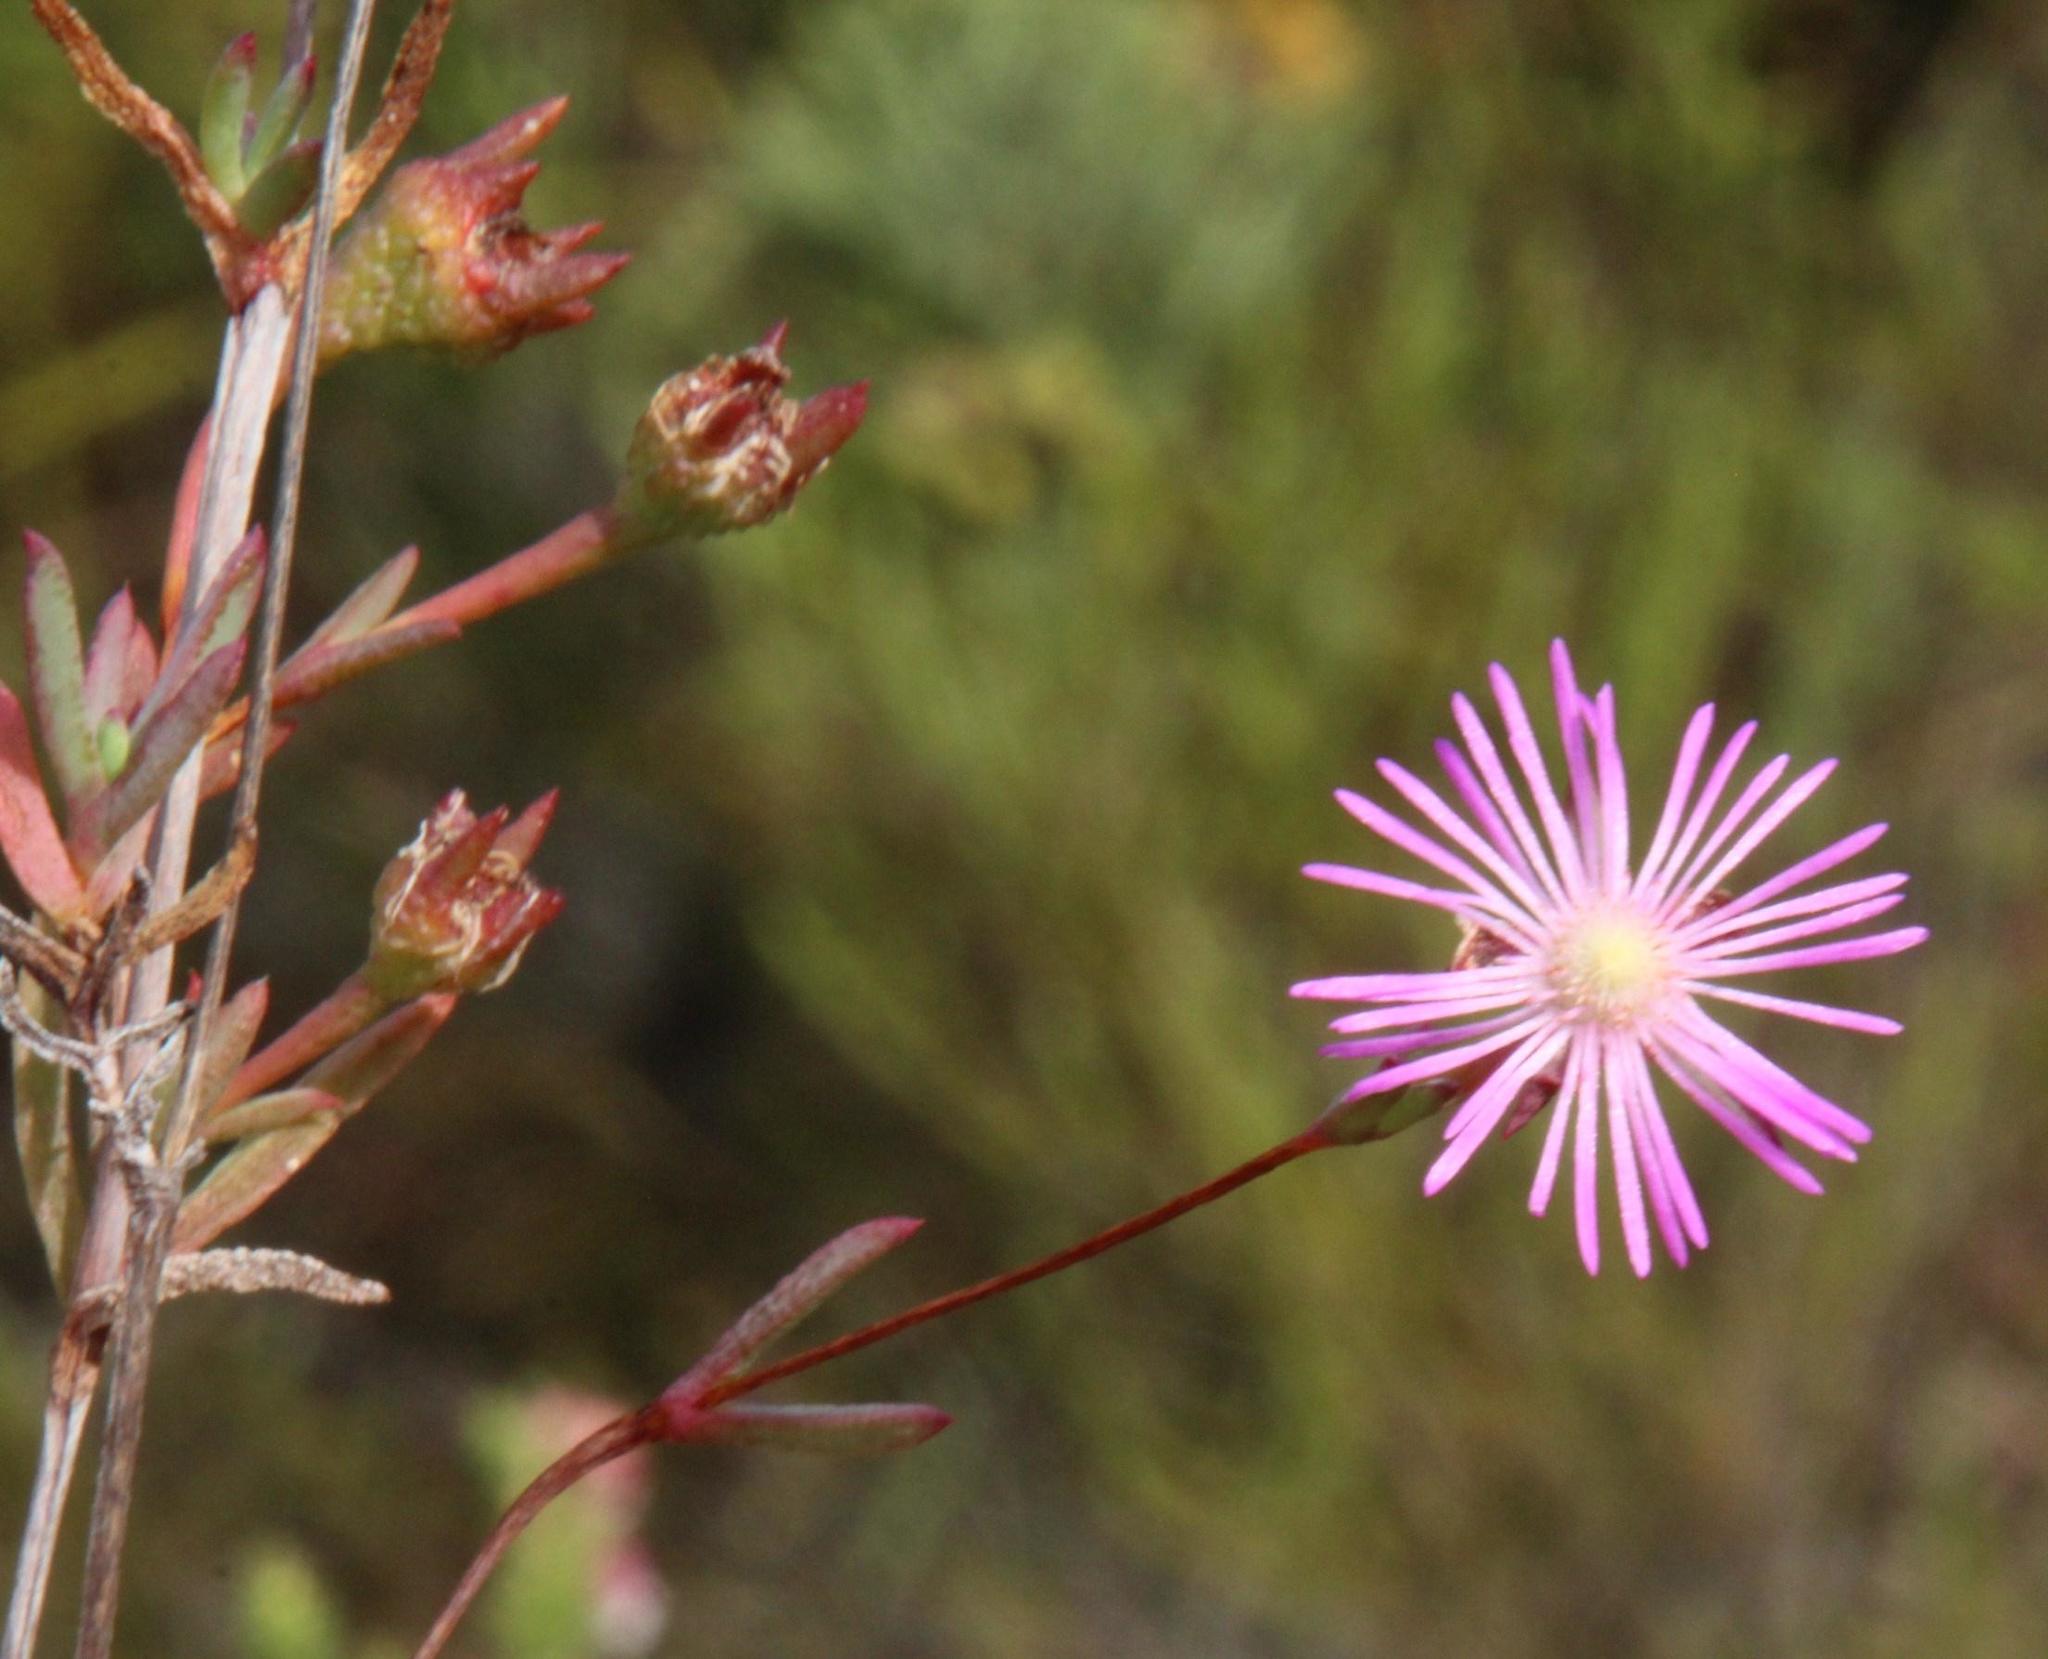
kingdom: Plantae
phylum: Tracheophyta
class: Magnoliopsida
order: Caryophyllales
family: Aizoaceae
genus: Erepsia
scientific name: Erepsia gracilis
